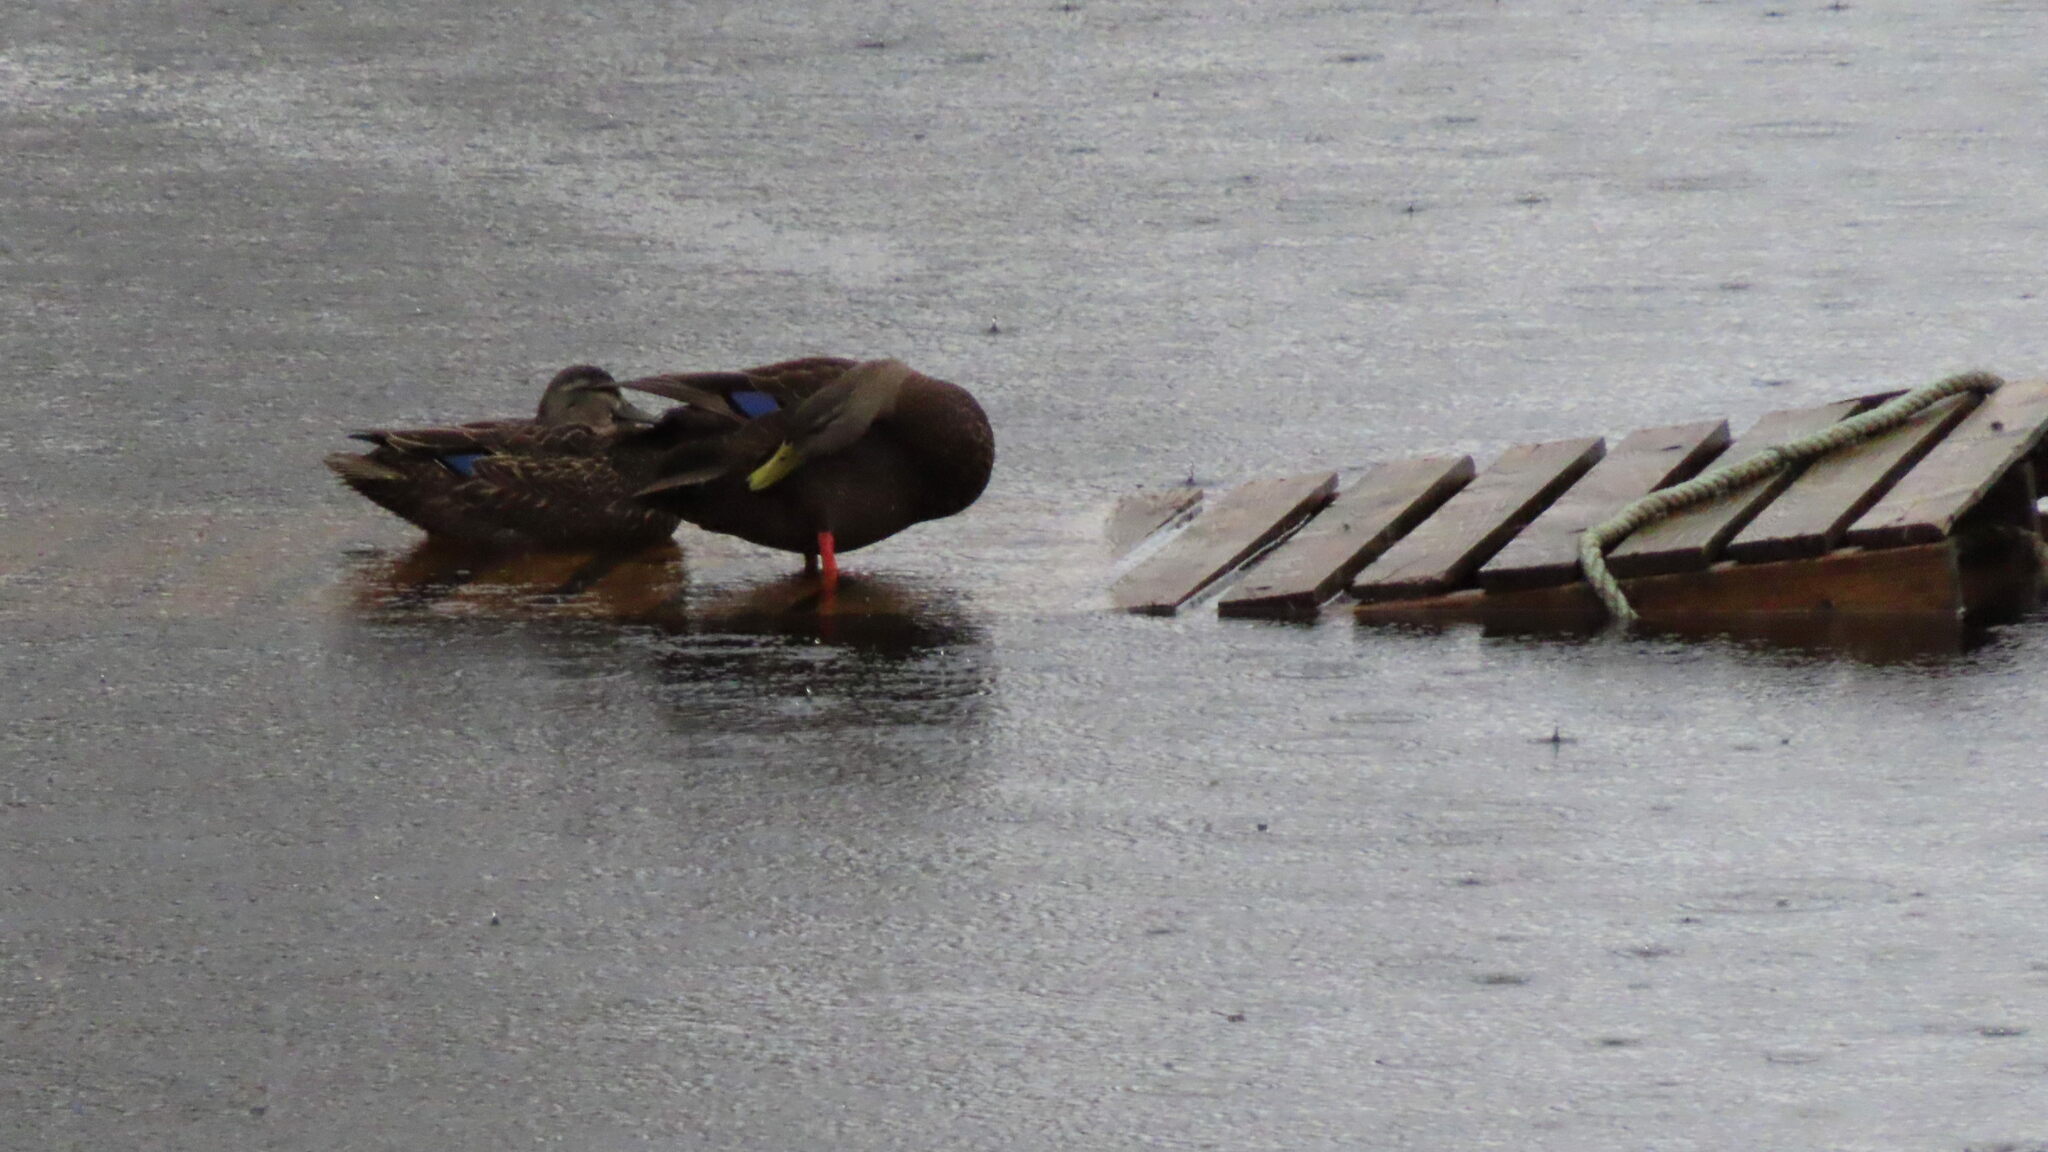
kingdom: Animalia
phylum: Chordata
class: Aves
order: Anseriformes
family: Anatidae
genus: Anas
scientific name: Anas rubripes
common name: American black duck
